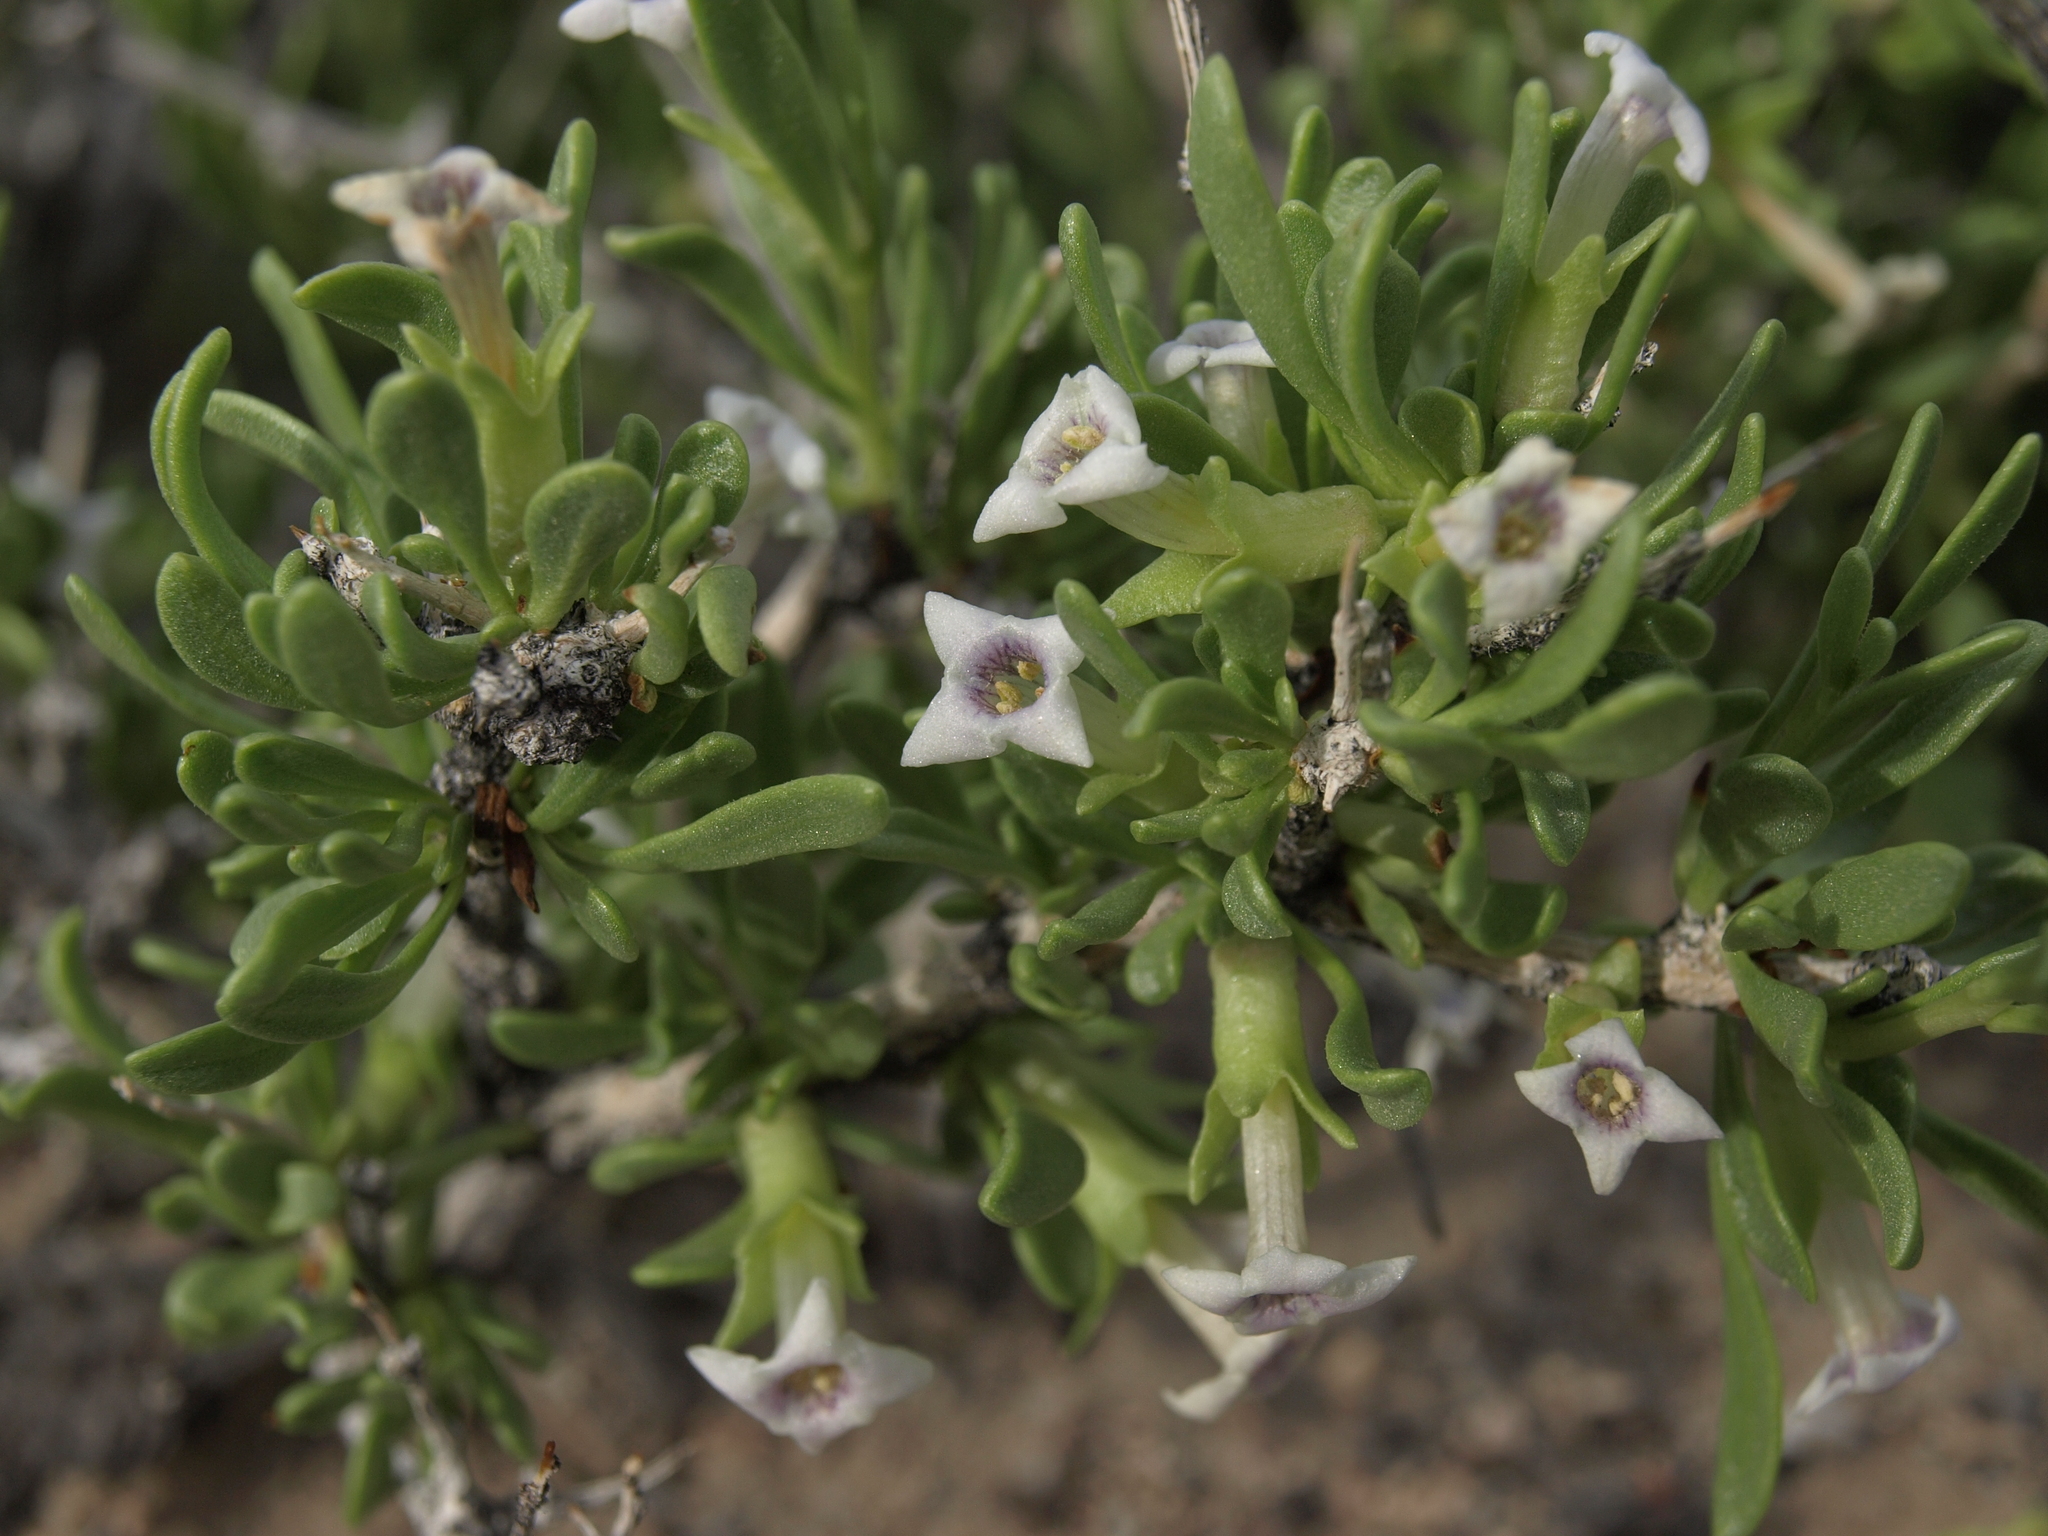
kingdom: Plantae
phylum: Tracheophyta
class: Magnoliopsida
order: Solanales
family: Solanaceae
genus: Lycium
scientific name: Lycium shockleyi
